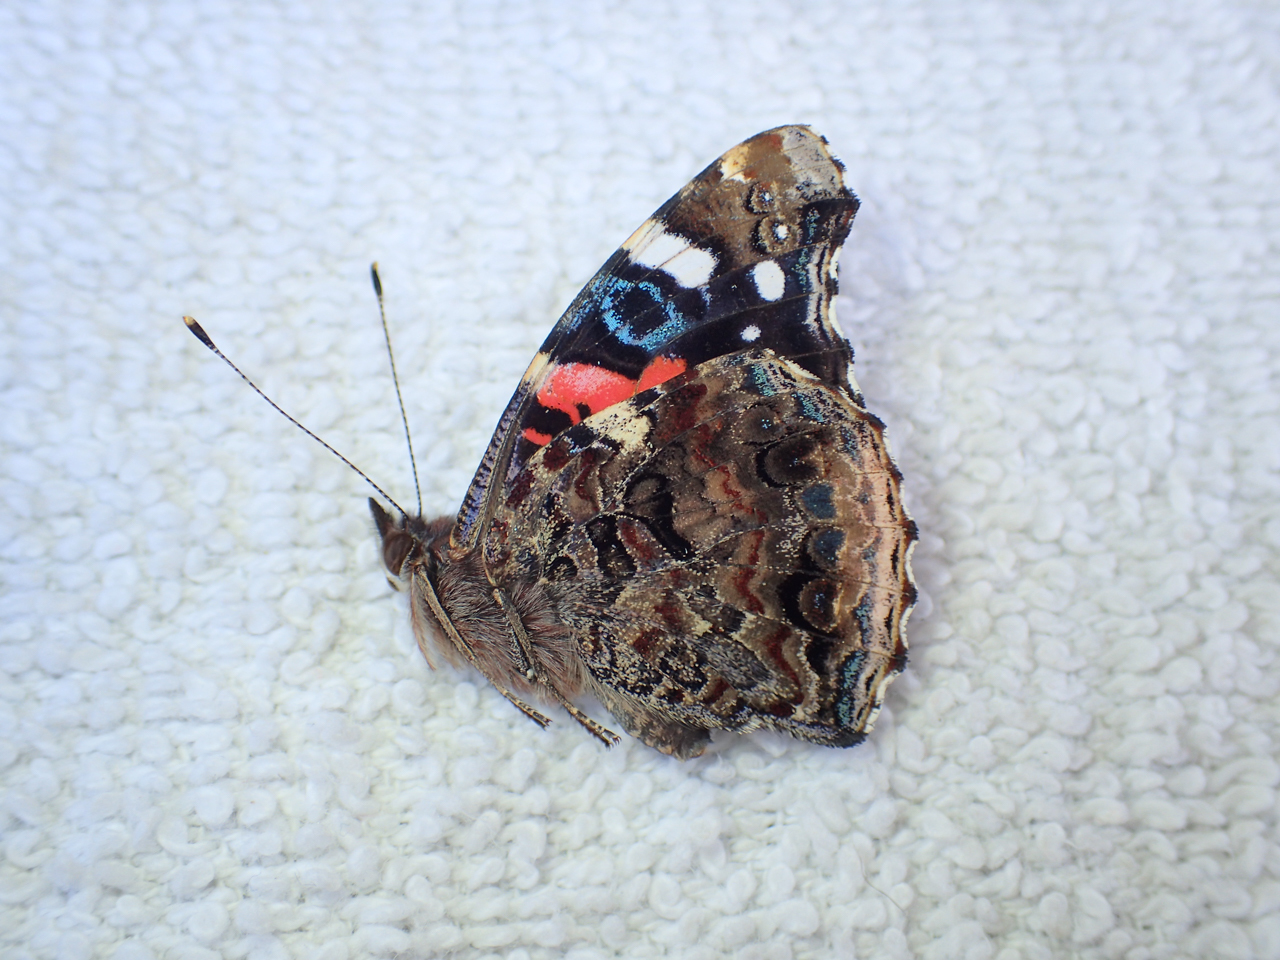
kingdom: Animalia
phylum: Arthropoda
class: Insecta
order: Lepidoptera
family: Nymphalidae
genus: Vanessa
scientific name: Vanessa atalanta
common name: Red admiral
